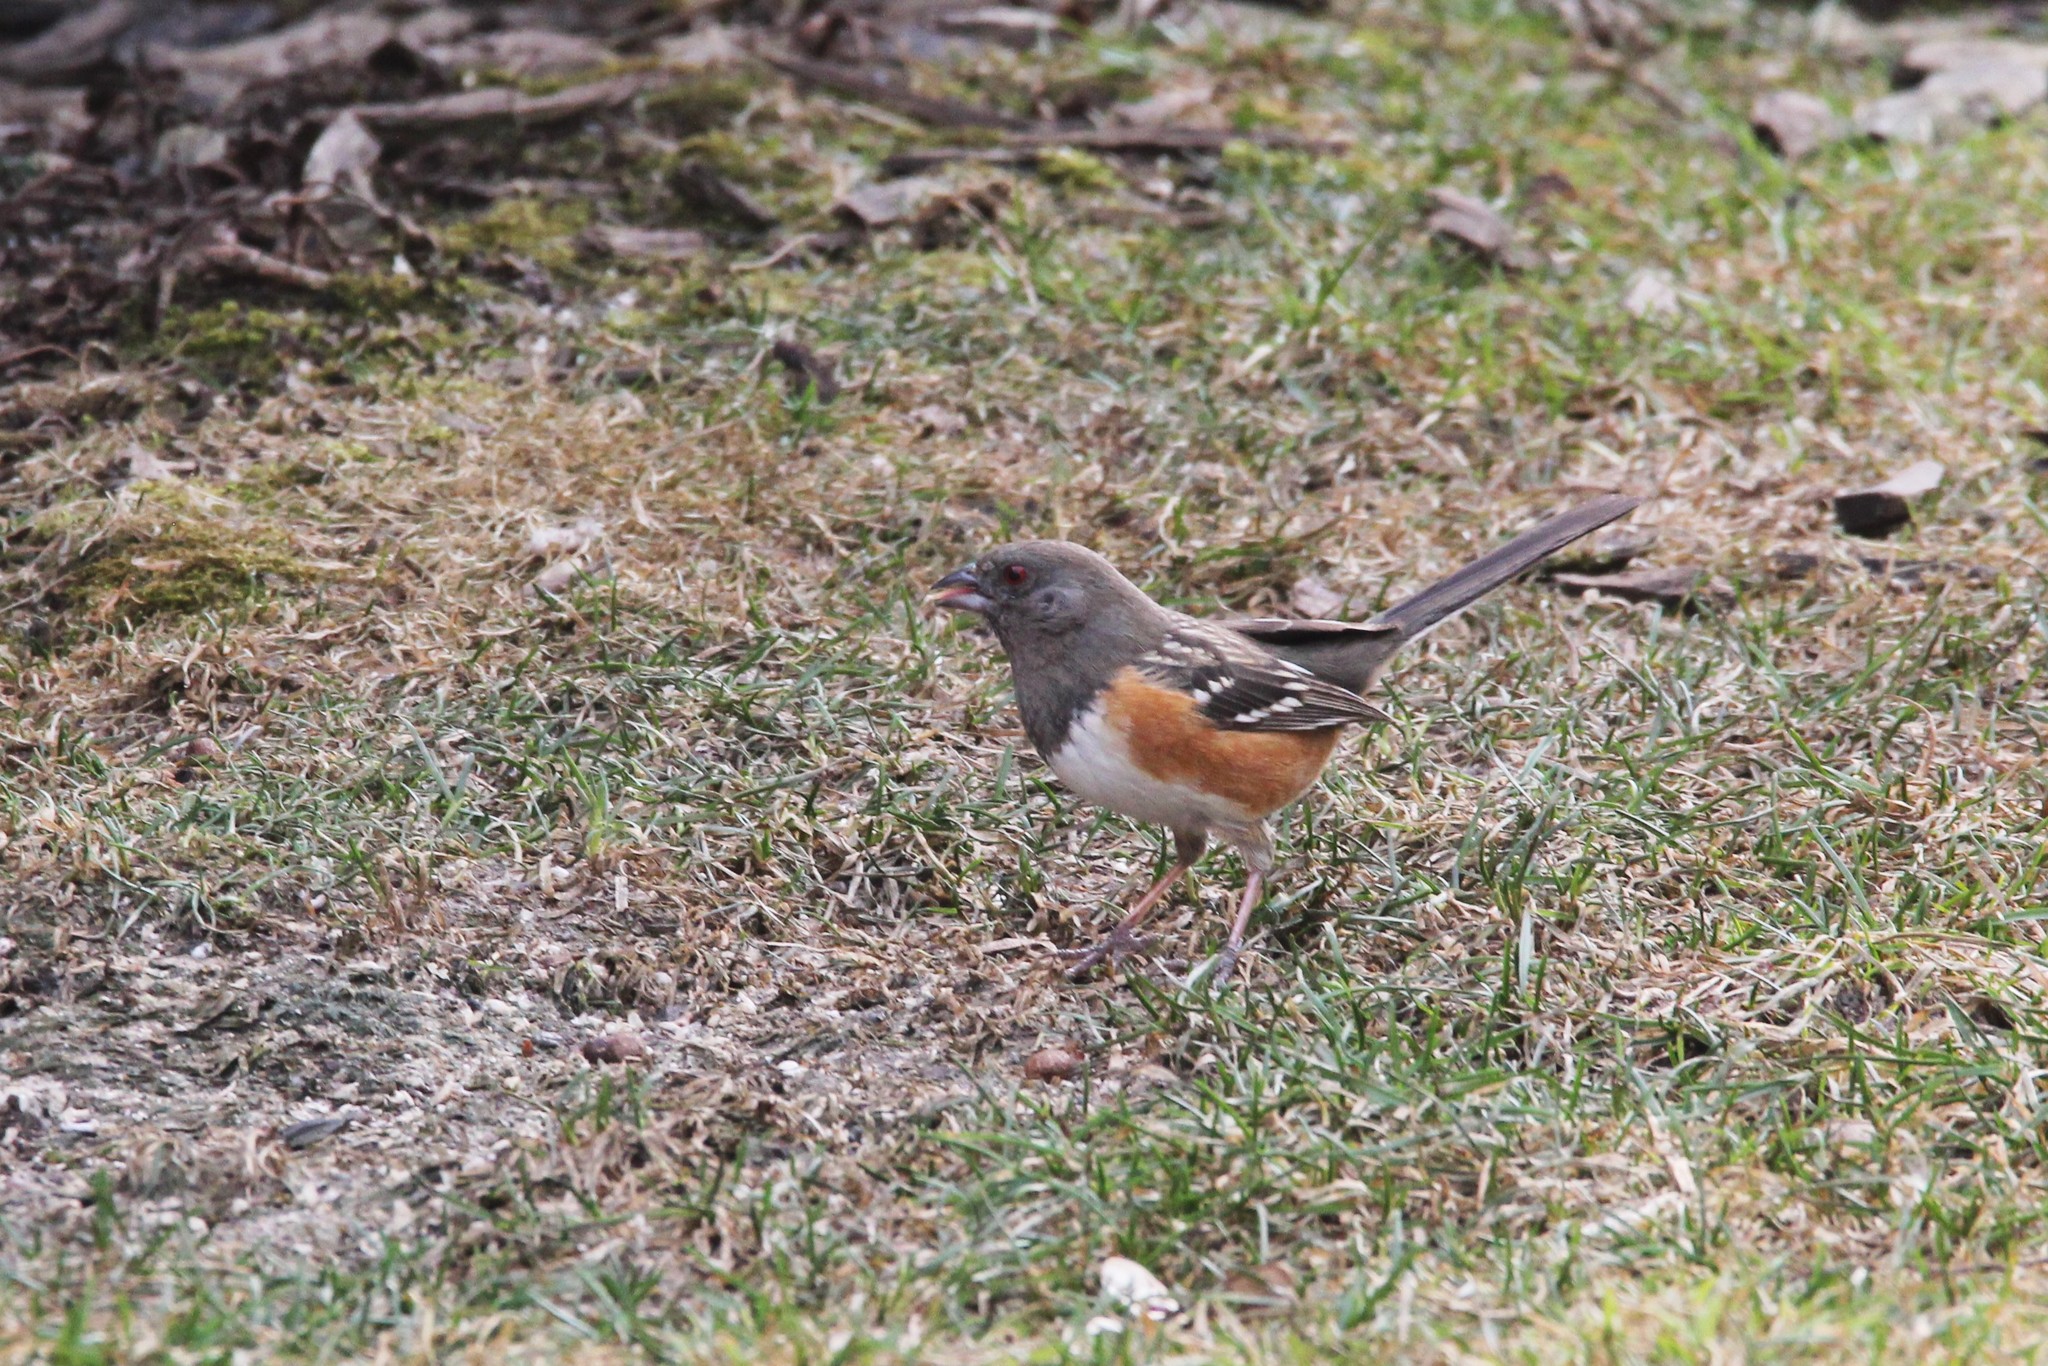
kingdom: Animalia
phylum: Chordata
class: Aves
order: Passeriformes
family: Passerellidae
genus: Pipilo
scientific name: Pipilo maculatus
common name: Spotted towhee
